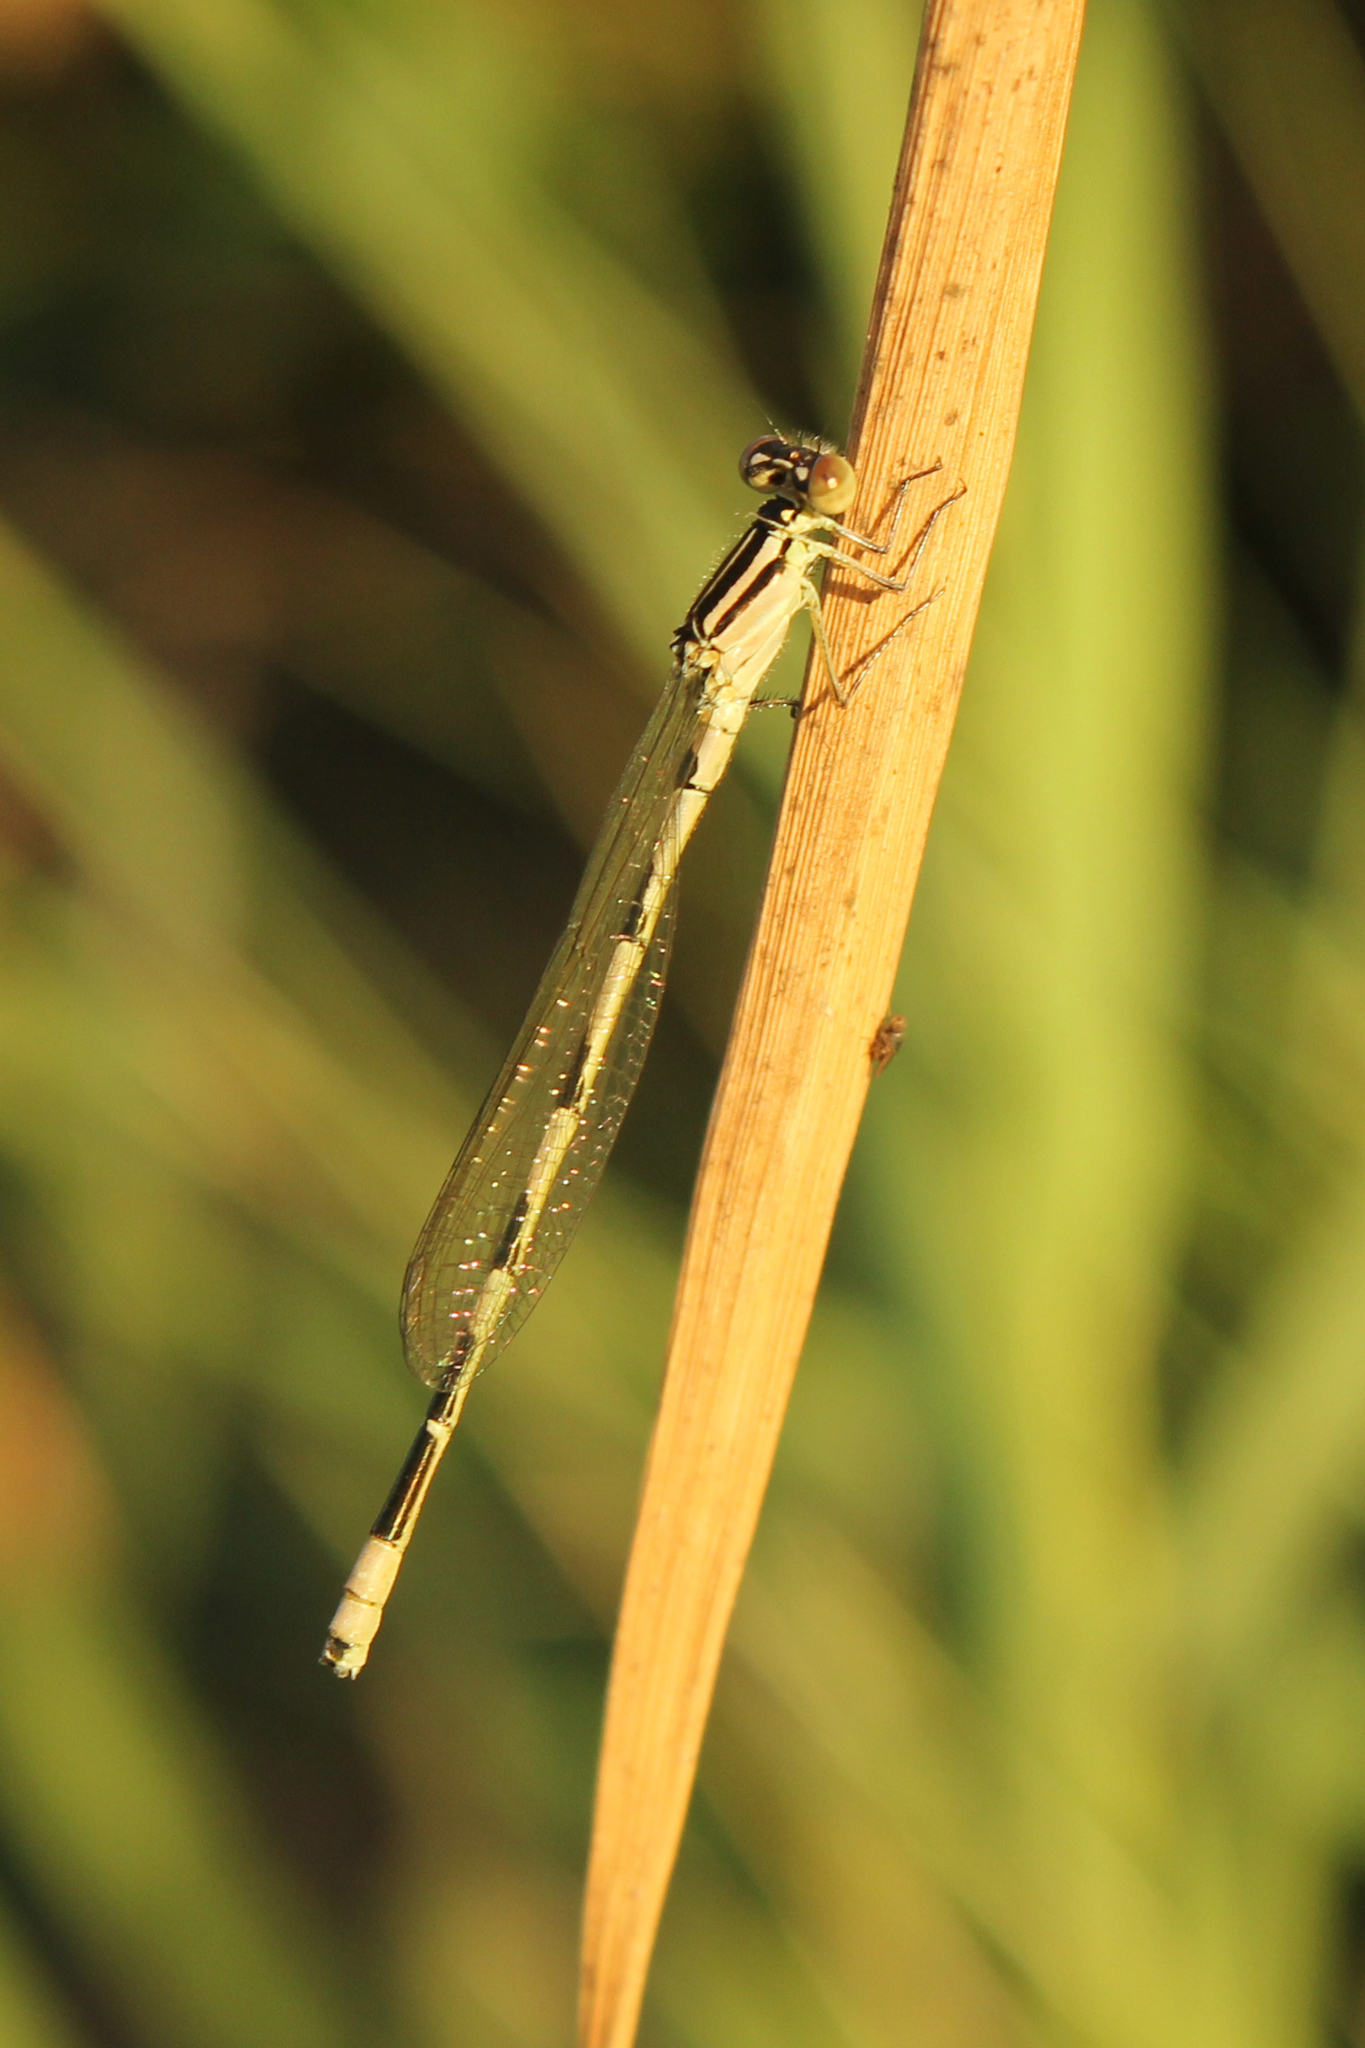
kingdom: Animalia
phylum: Arthropoda
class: Insecta
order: Odonata
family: Coenagrionidae
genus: Enallagma
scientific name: Enallagma durum
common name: Big bluet
